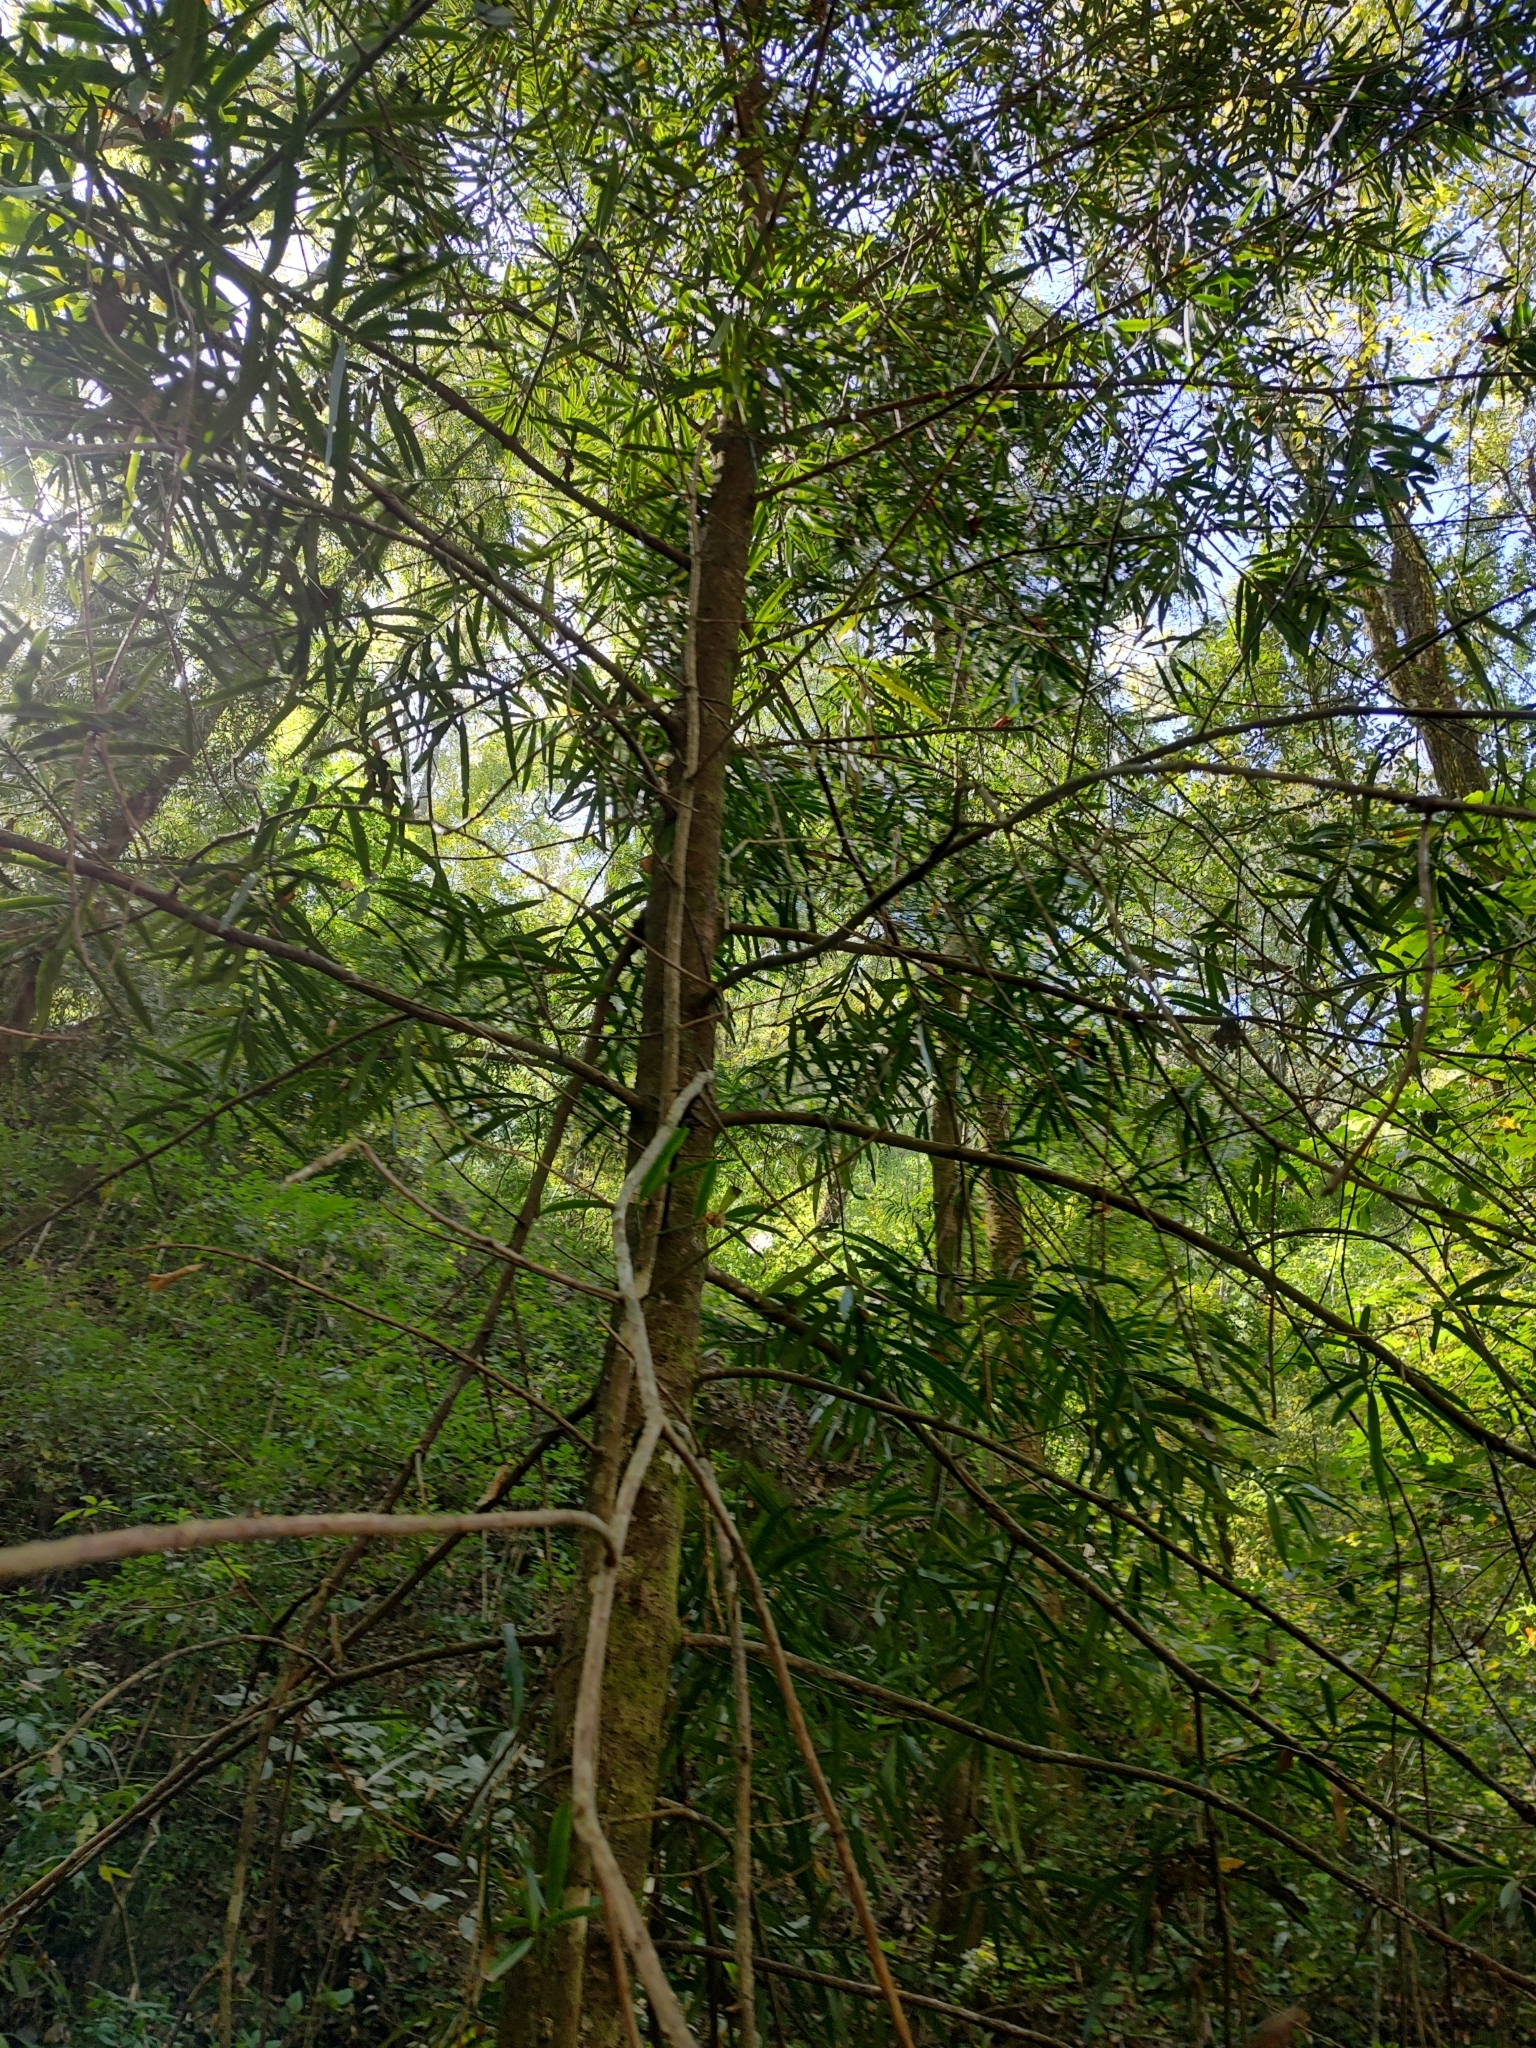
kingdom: Plantae
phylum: Tracheophyta
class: Pinopsida
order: Pinales
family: Podocarpaceae
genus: Podocarpus
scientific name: Podocarpus matudae
